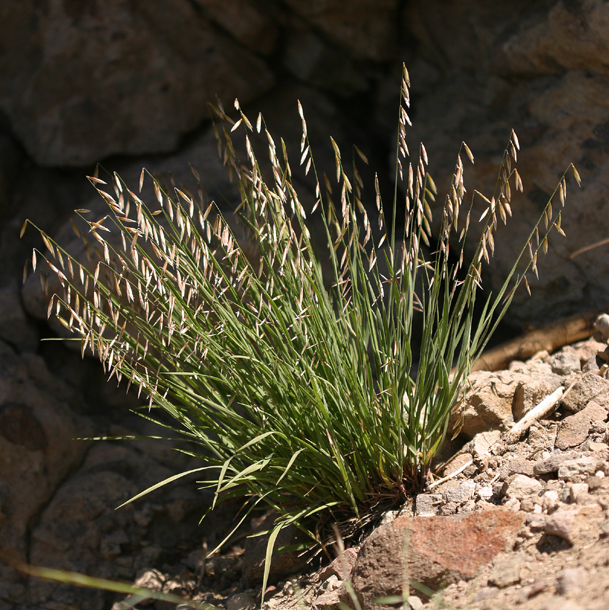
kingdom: Plantae
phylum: Tracheophyta
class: Liliopsida
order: Poales
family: Poaceae
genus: Melica
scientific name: Melica stricta
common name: Rock melic
